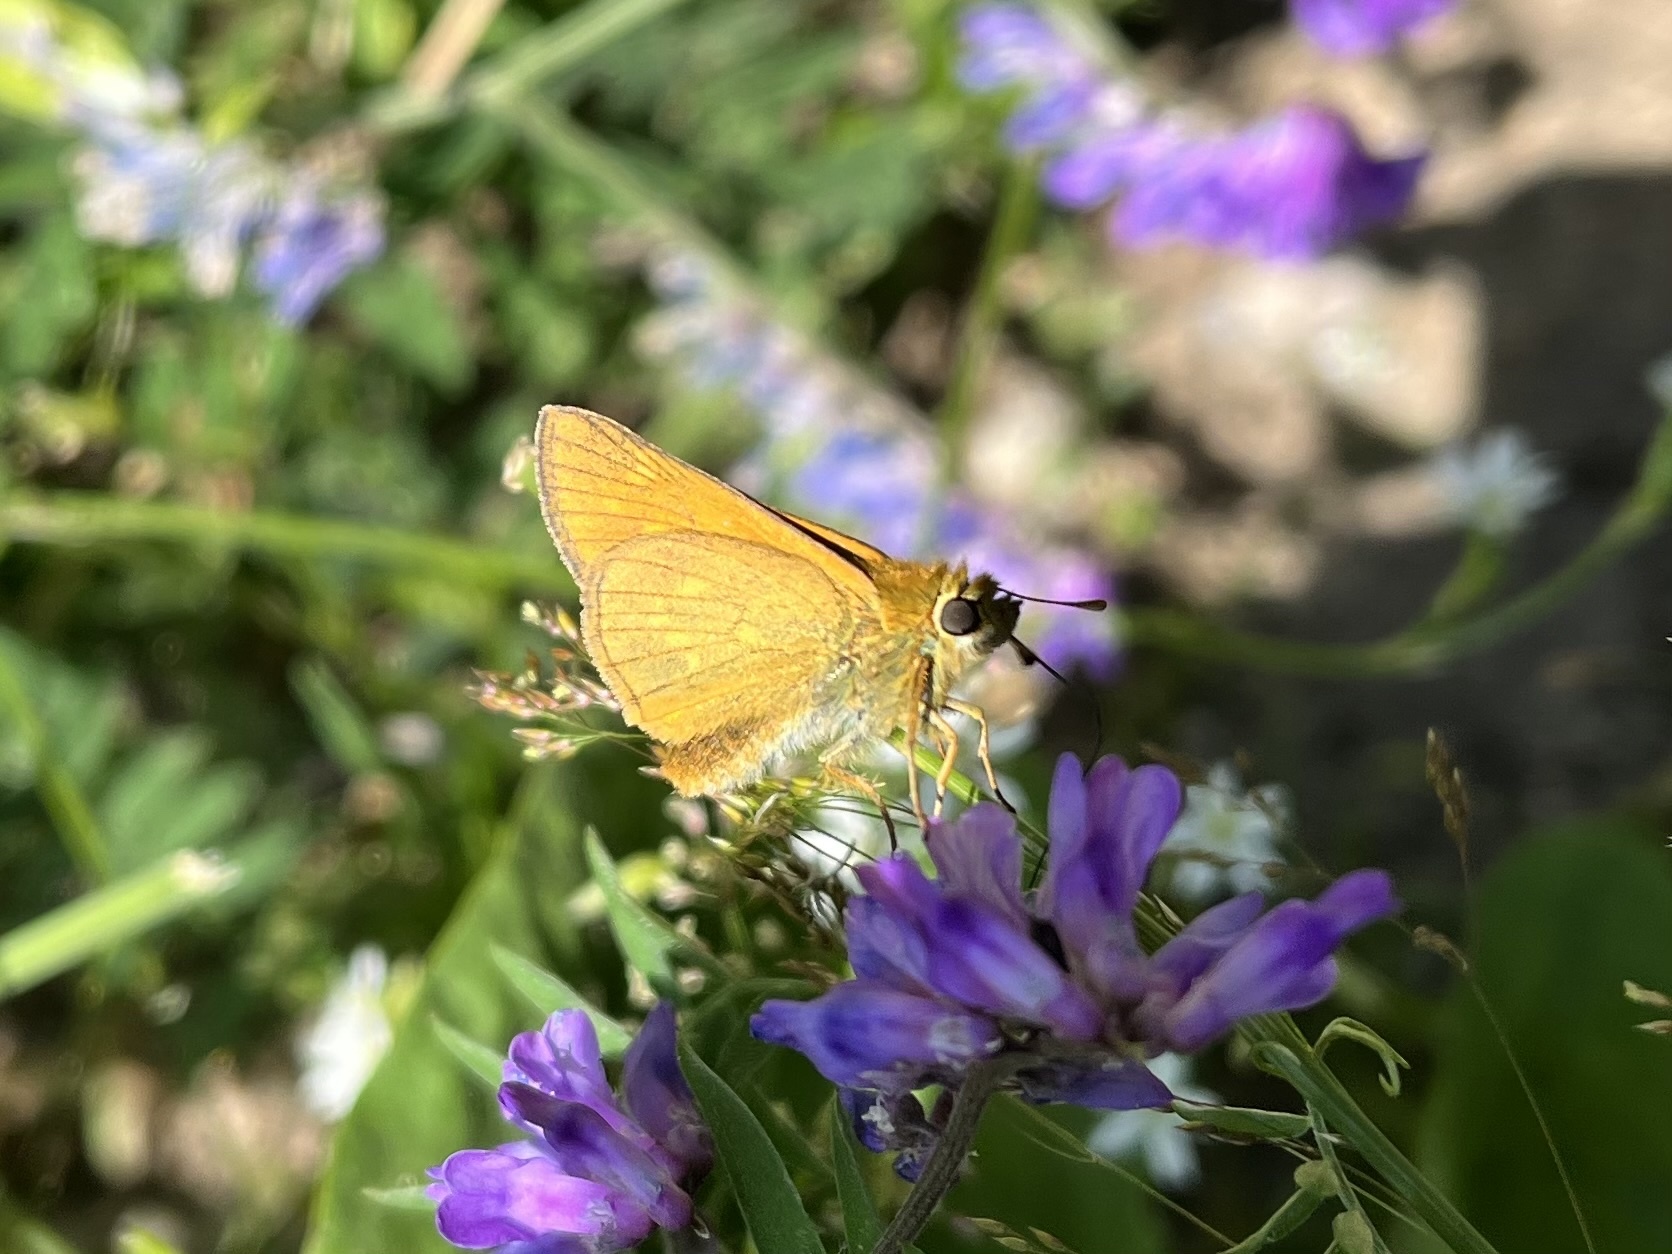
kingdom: Animalia
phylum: Arthropoda
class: Insecta
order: Lepidoptera
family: Hesperiidae
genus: Ochlodes
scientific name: Ochlodes venata
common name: Large skipper
